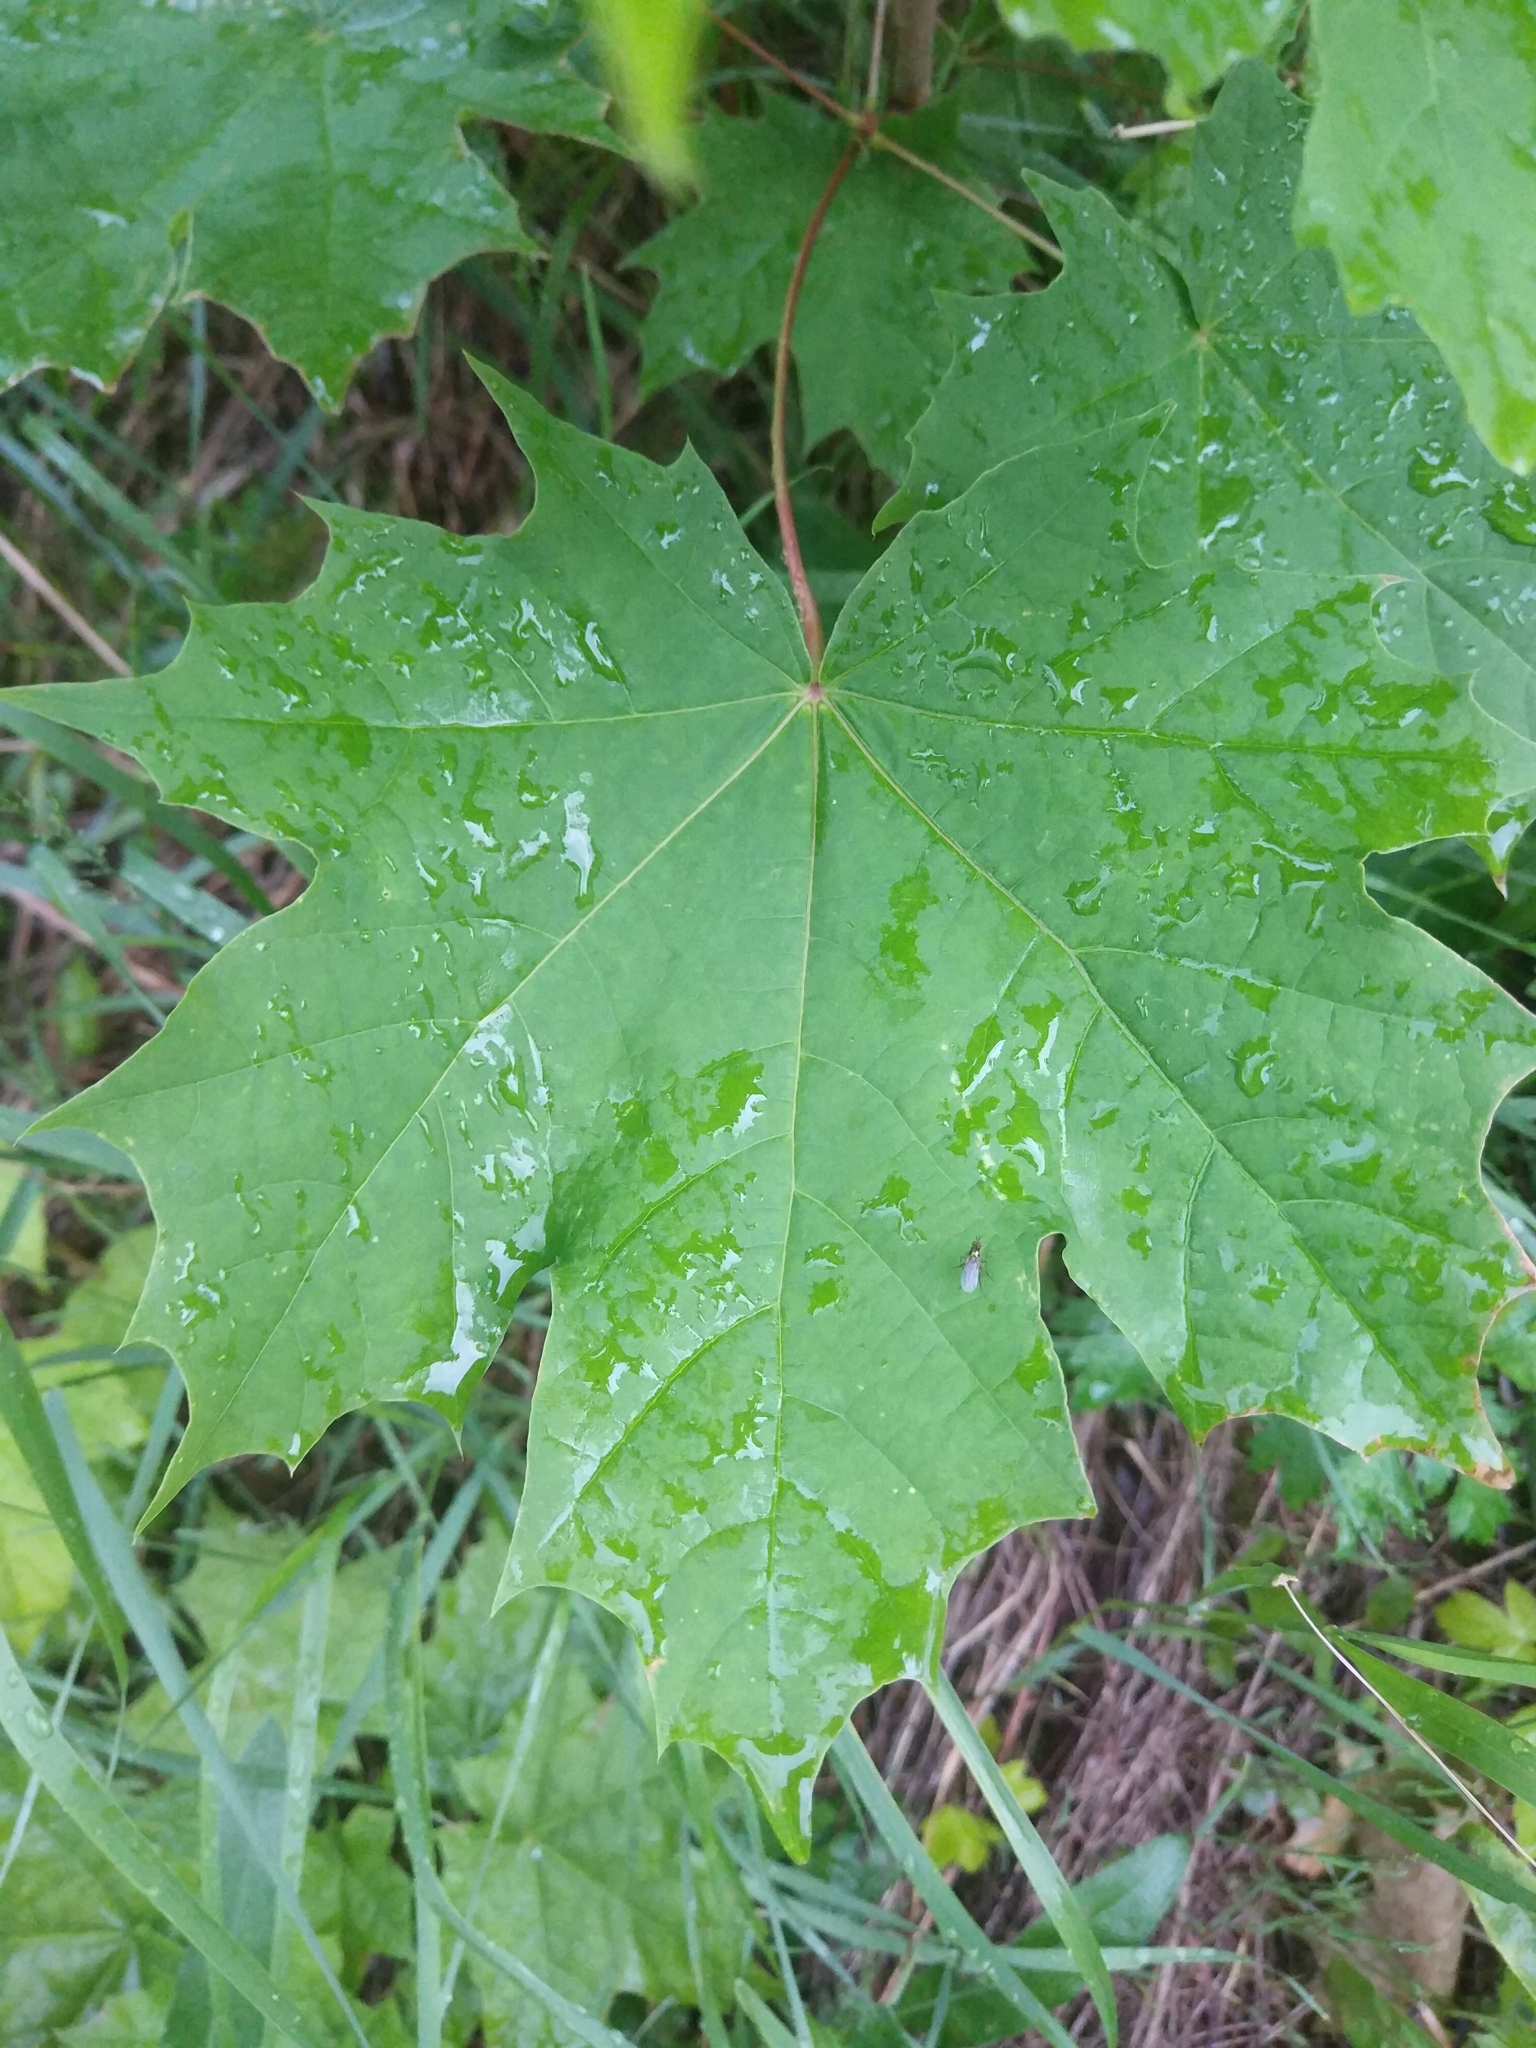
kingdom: Plantae
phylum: Tracheophyta
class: Magnoliopsida
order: Sapindales
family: Sapindaceae
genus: Acer
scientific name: Acer platanoides
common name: Norway maple
